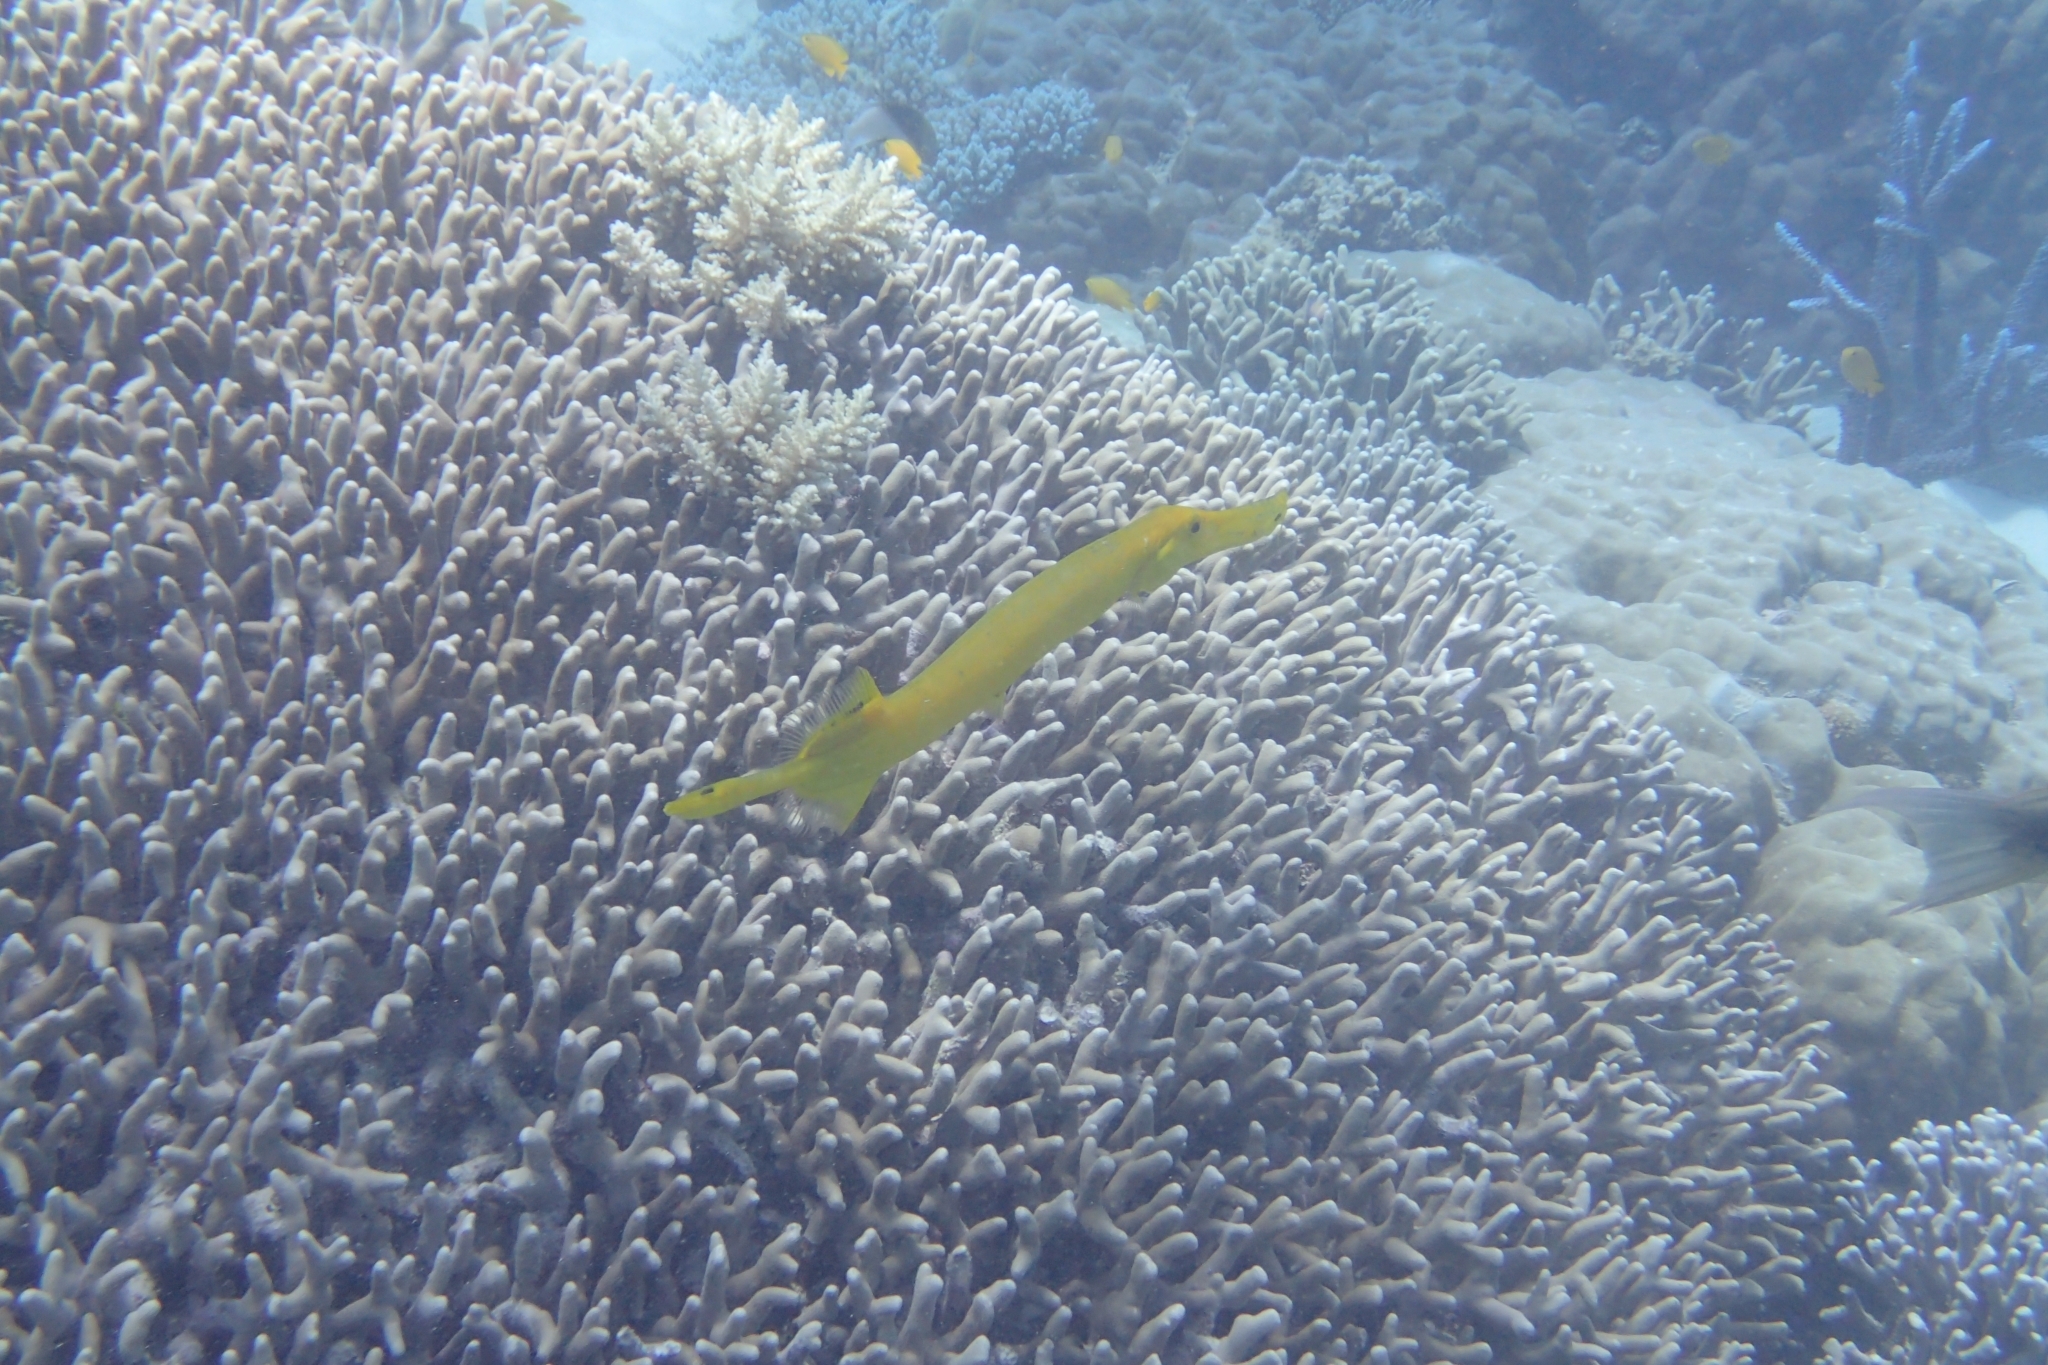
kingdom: Animalia
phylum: Chordata
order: Syngnathiformes
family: Aulostomidae
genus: Aulostomus
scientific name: Aulostomus chinensis
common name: Chinese trumpetfish
